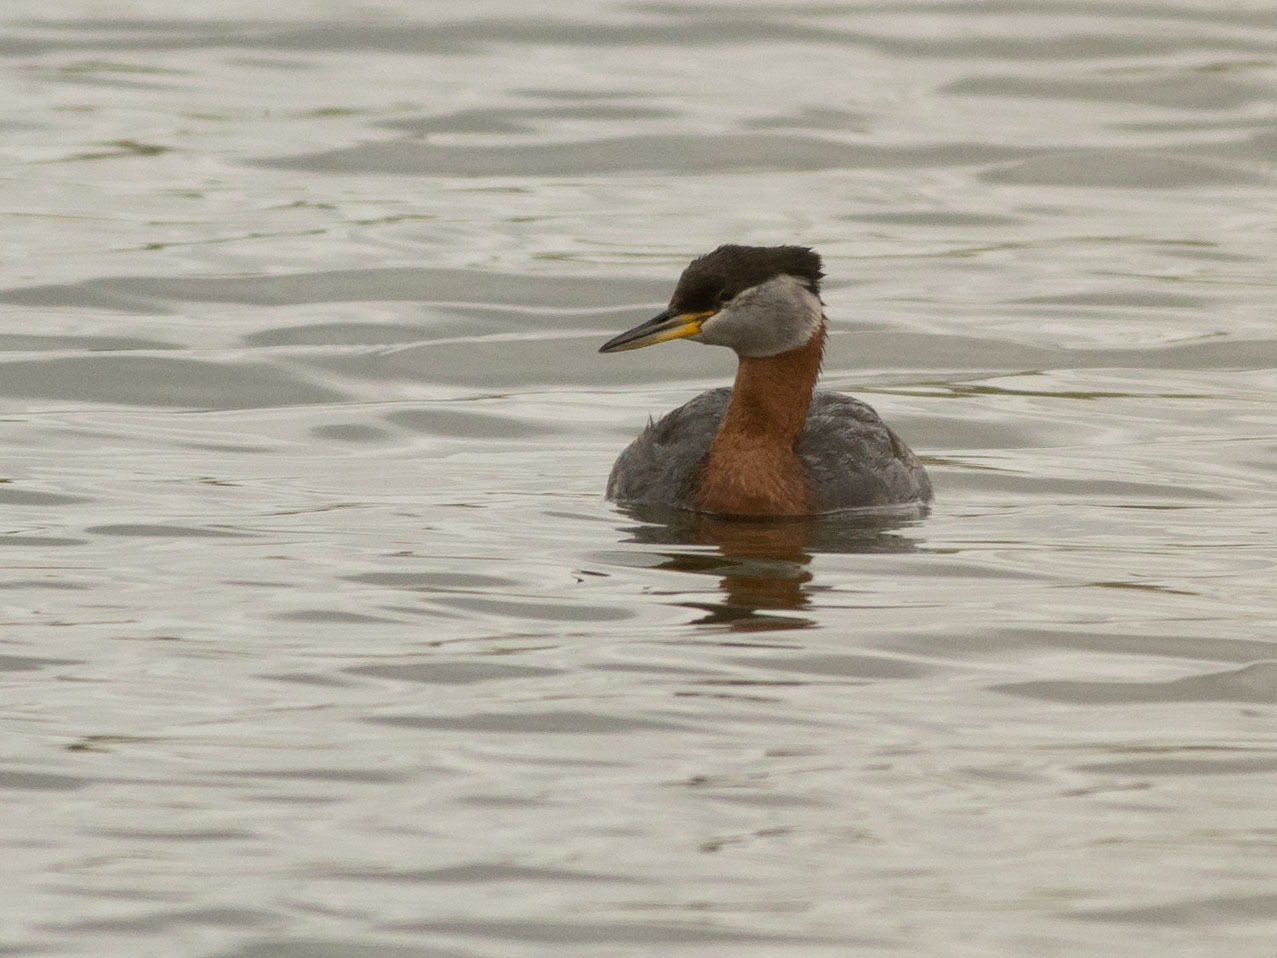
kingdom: Animalia
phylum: Chordata
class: Aves
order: Podicipediformes
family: Podicipedidae
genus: Podiceps
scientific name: Podiceps grisegena
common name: Red-necked grebe
